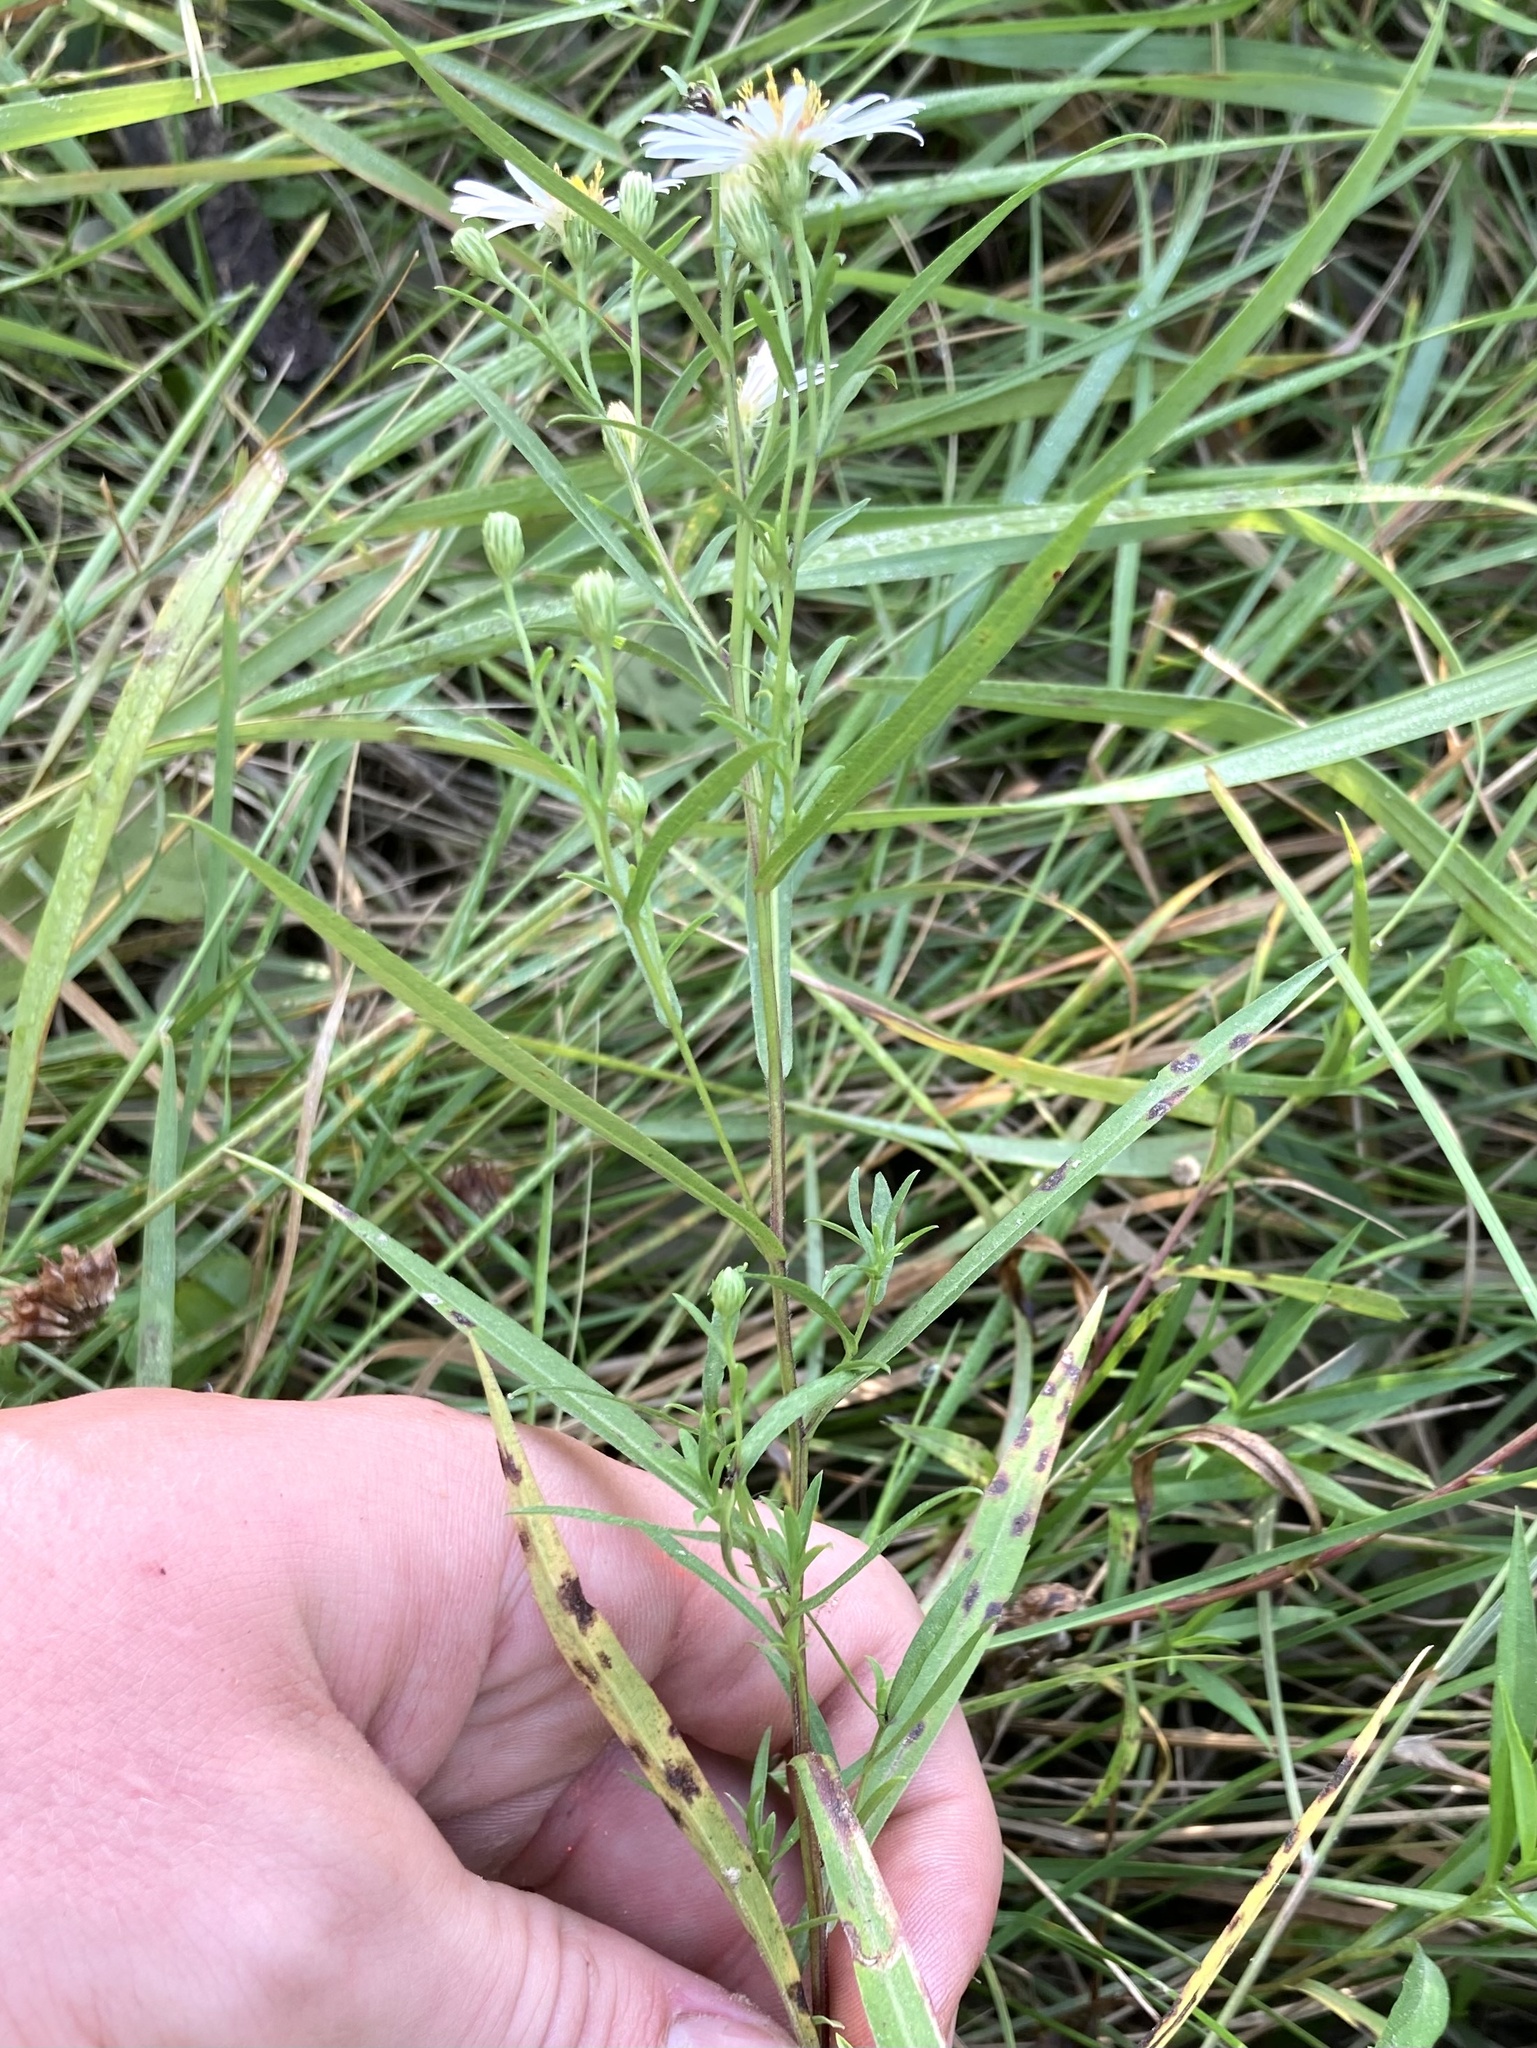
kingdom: Plantae
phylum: Tracheophyta
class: Magnoliopsida
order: Asterales
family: Asteraceae
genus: Symphyotrichum
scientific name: Symphyotrichum lanceolatum
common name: Panicled aster
